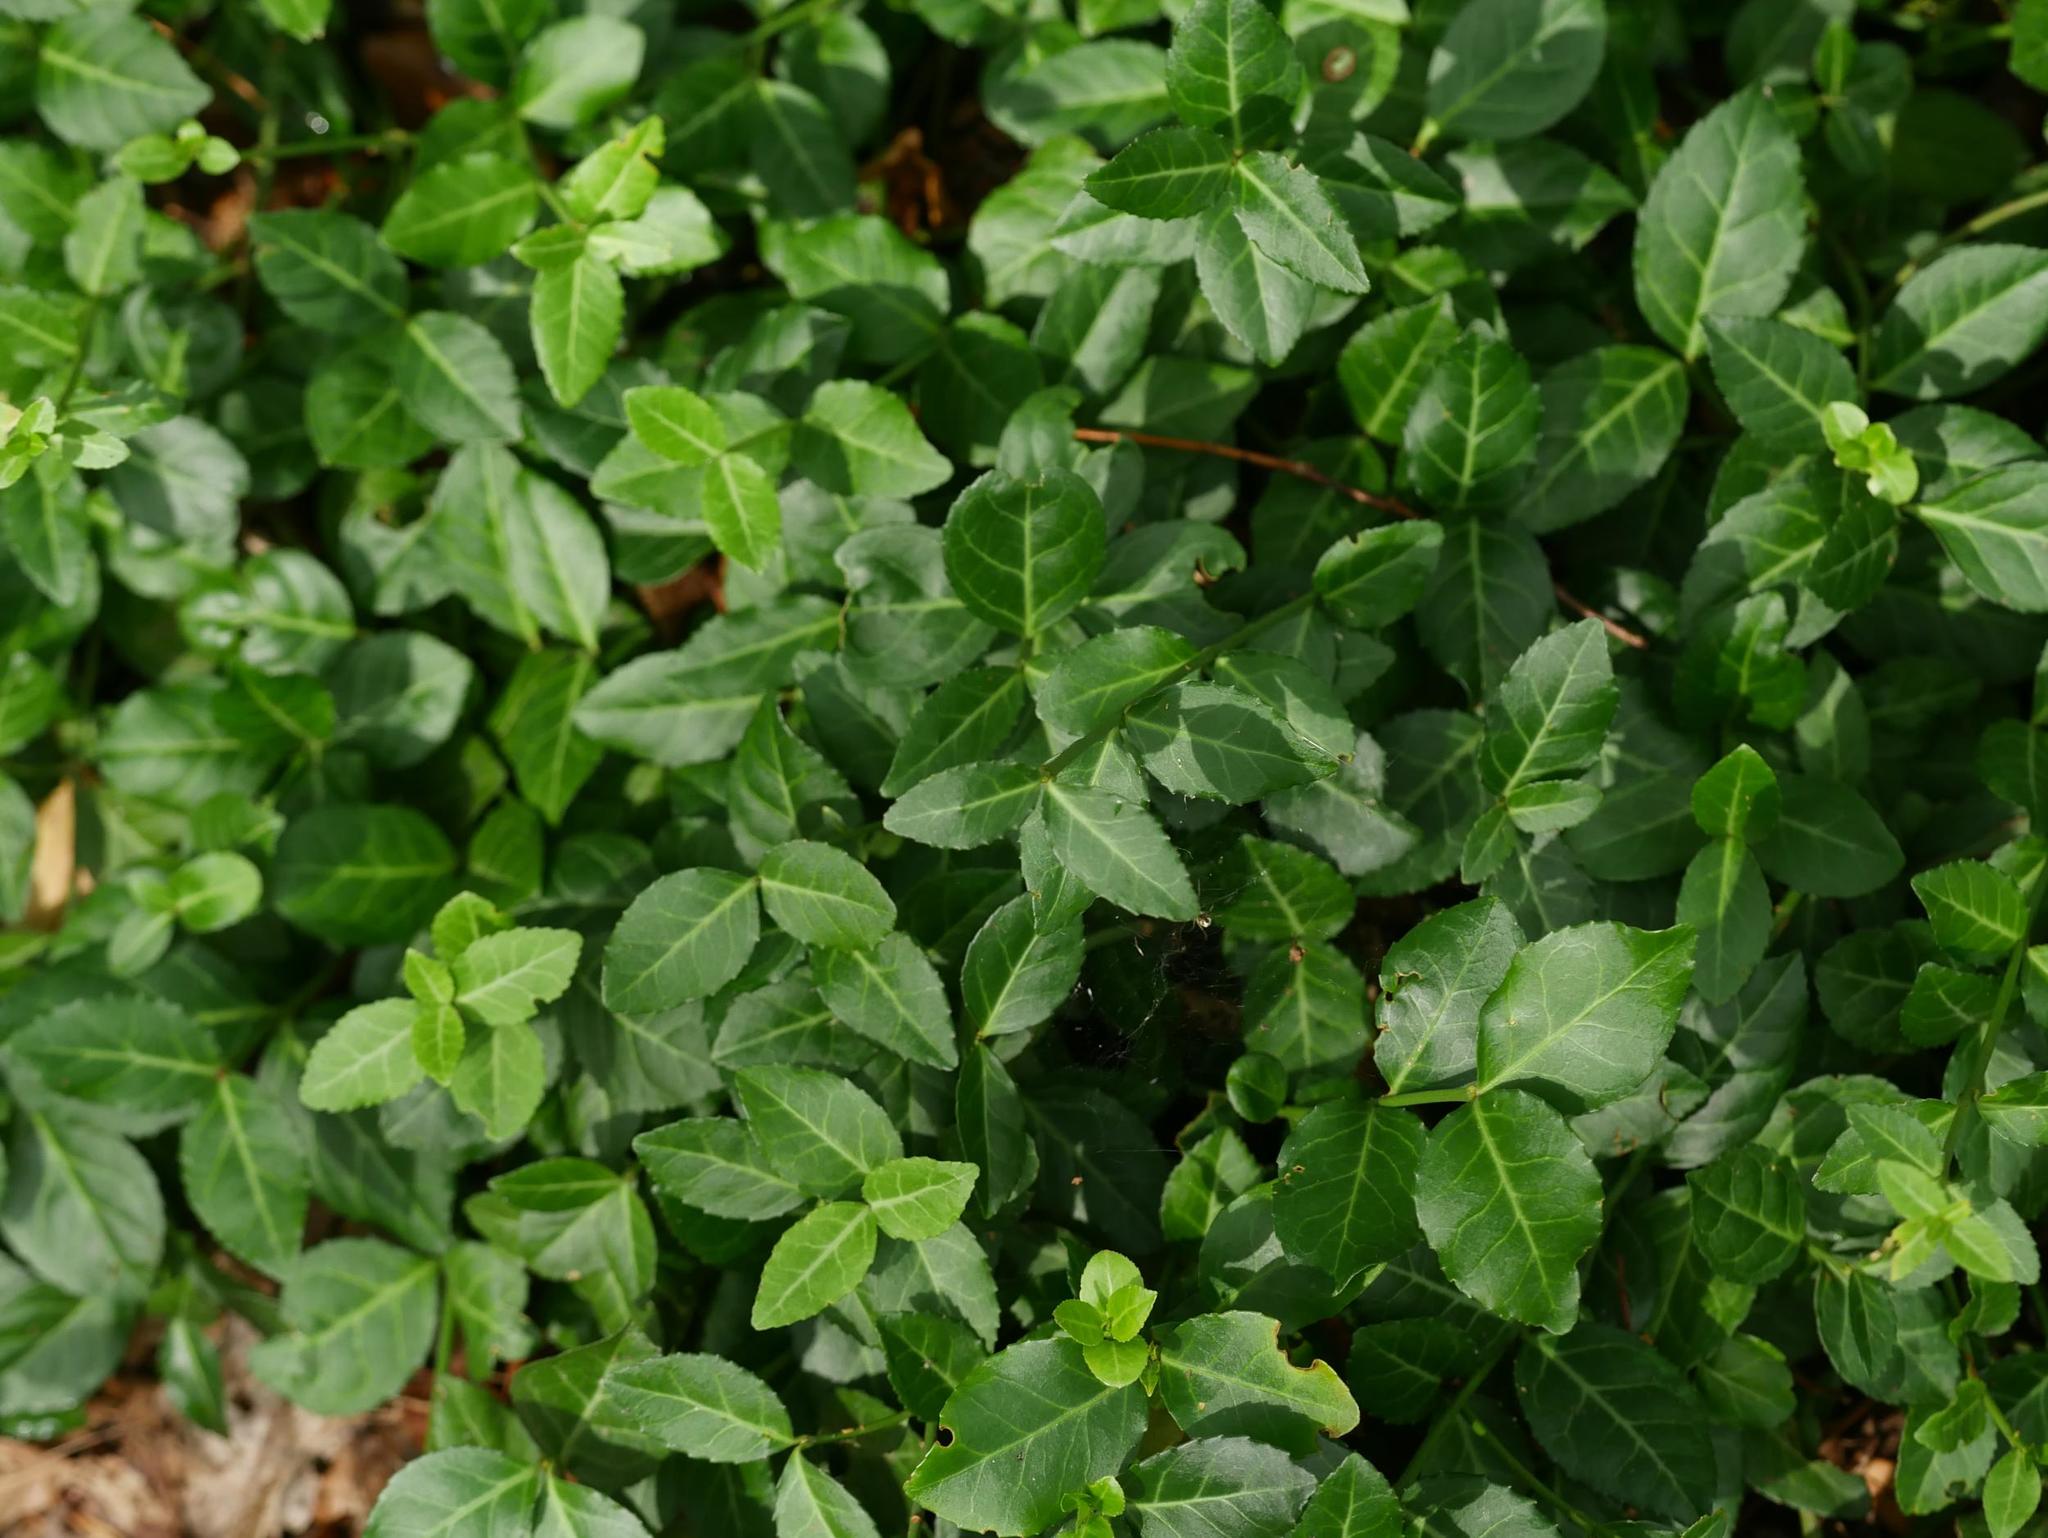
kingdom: Plantae
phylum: Tracheophyta
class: Magnoliopsida
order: Celastrales
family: Celastraceae
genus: Euonymus
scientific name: Euonymus fortunei
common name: Climbing euonymus
